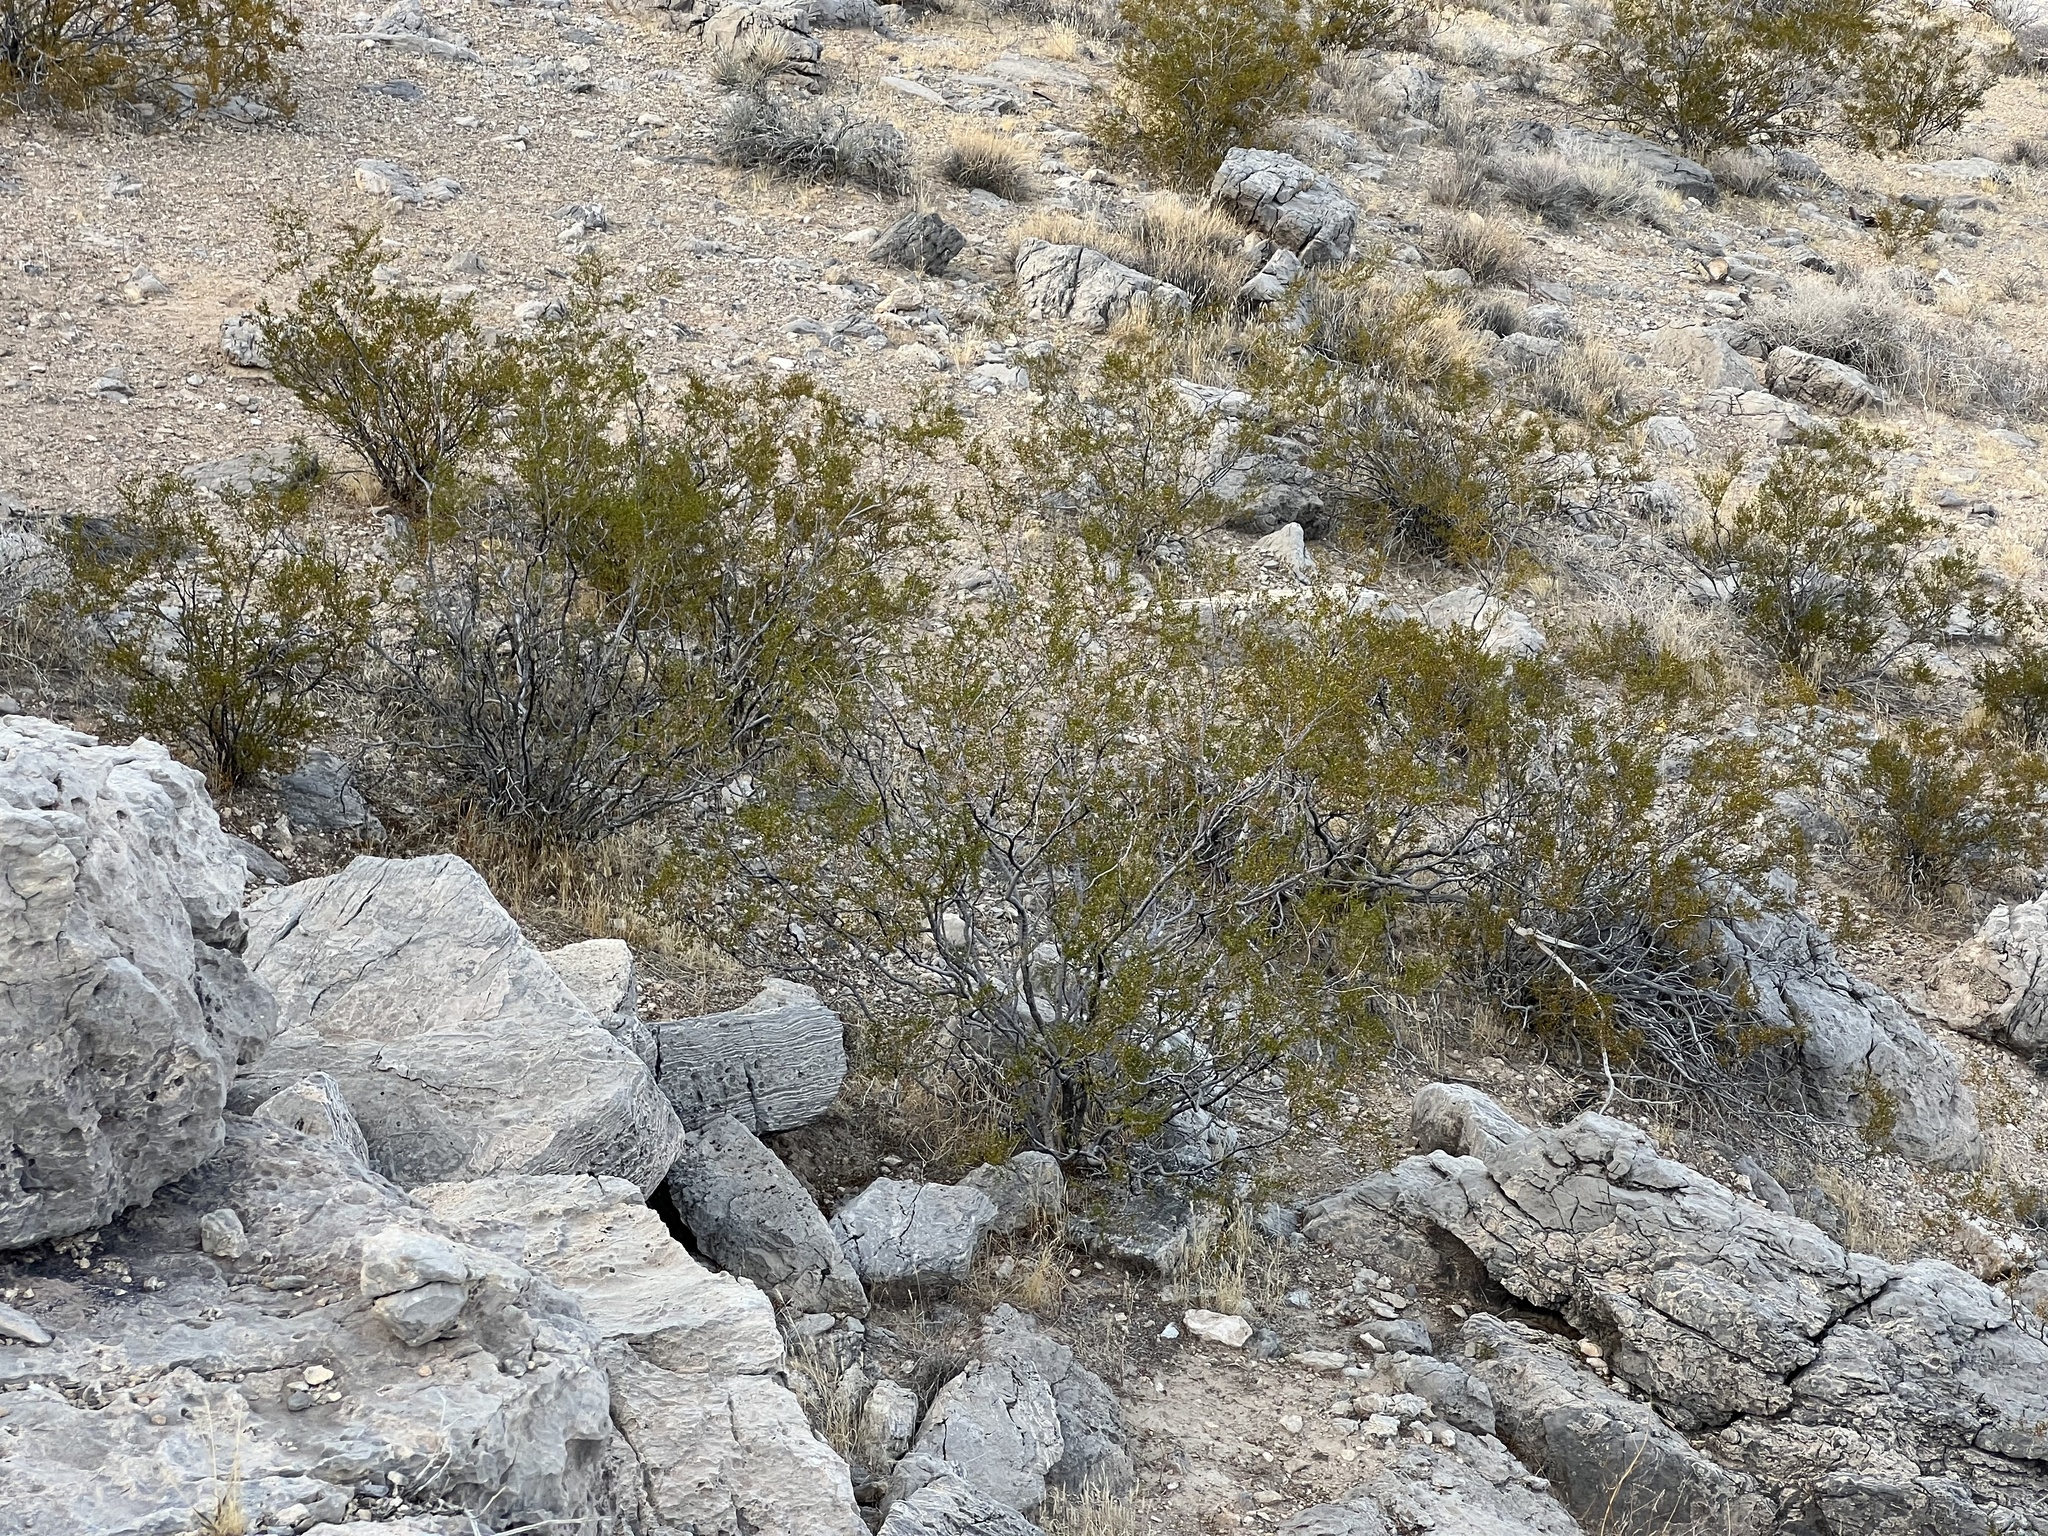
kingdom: Plantae
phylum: Tracheophyta
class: Magnoliopsida
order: Zygophyllales
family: Zygophyllaceae
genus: Larrea
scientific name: Larrea tridentata
